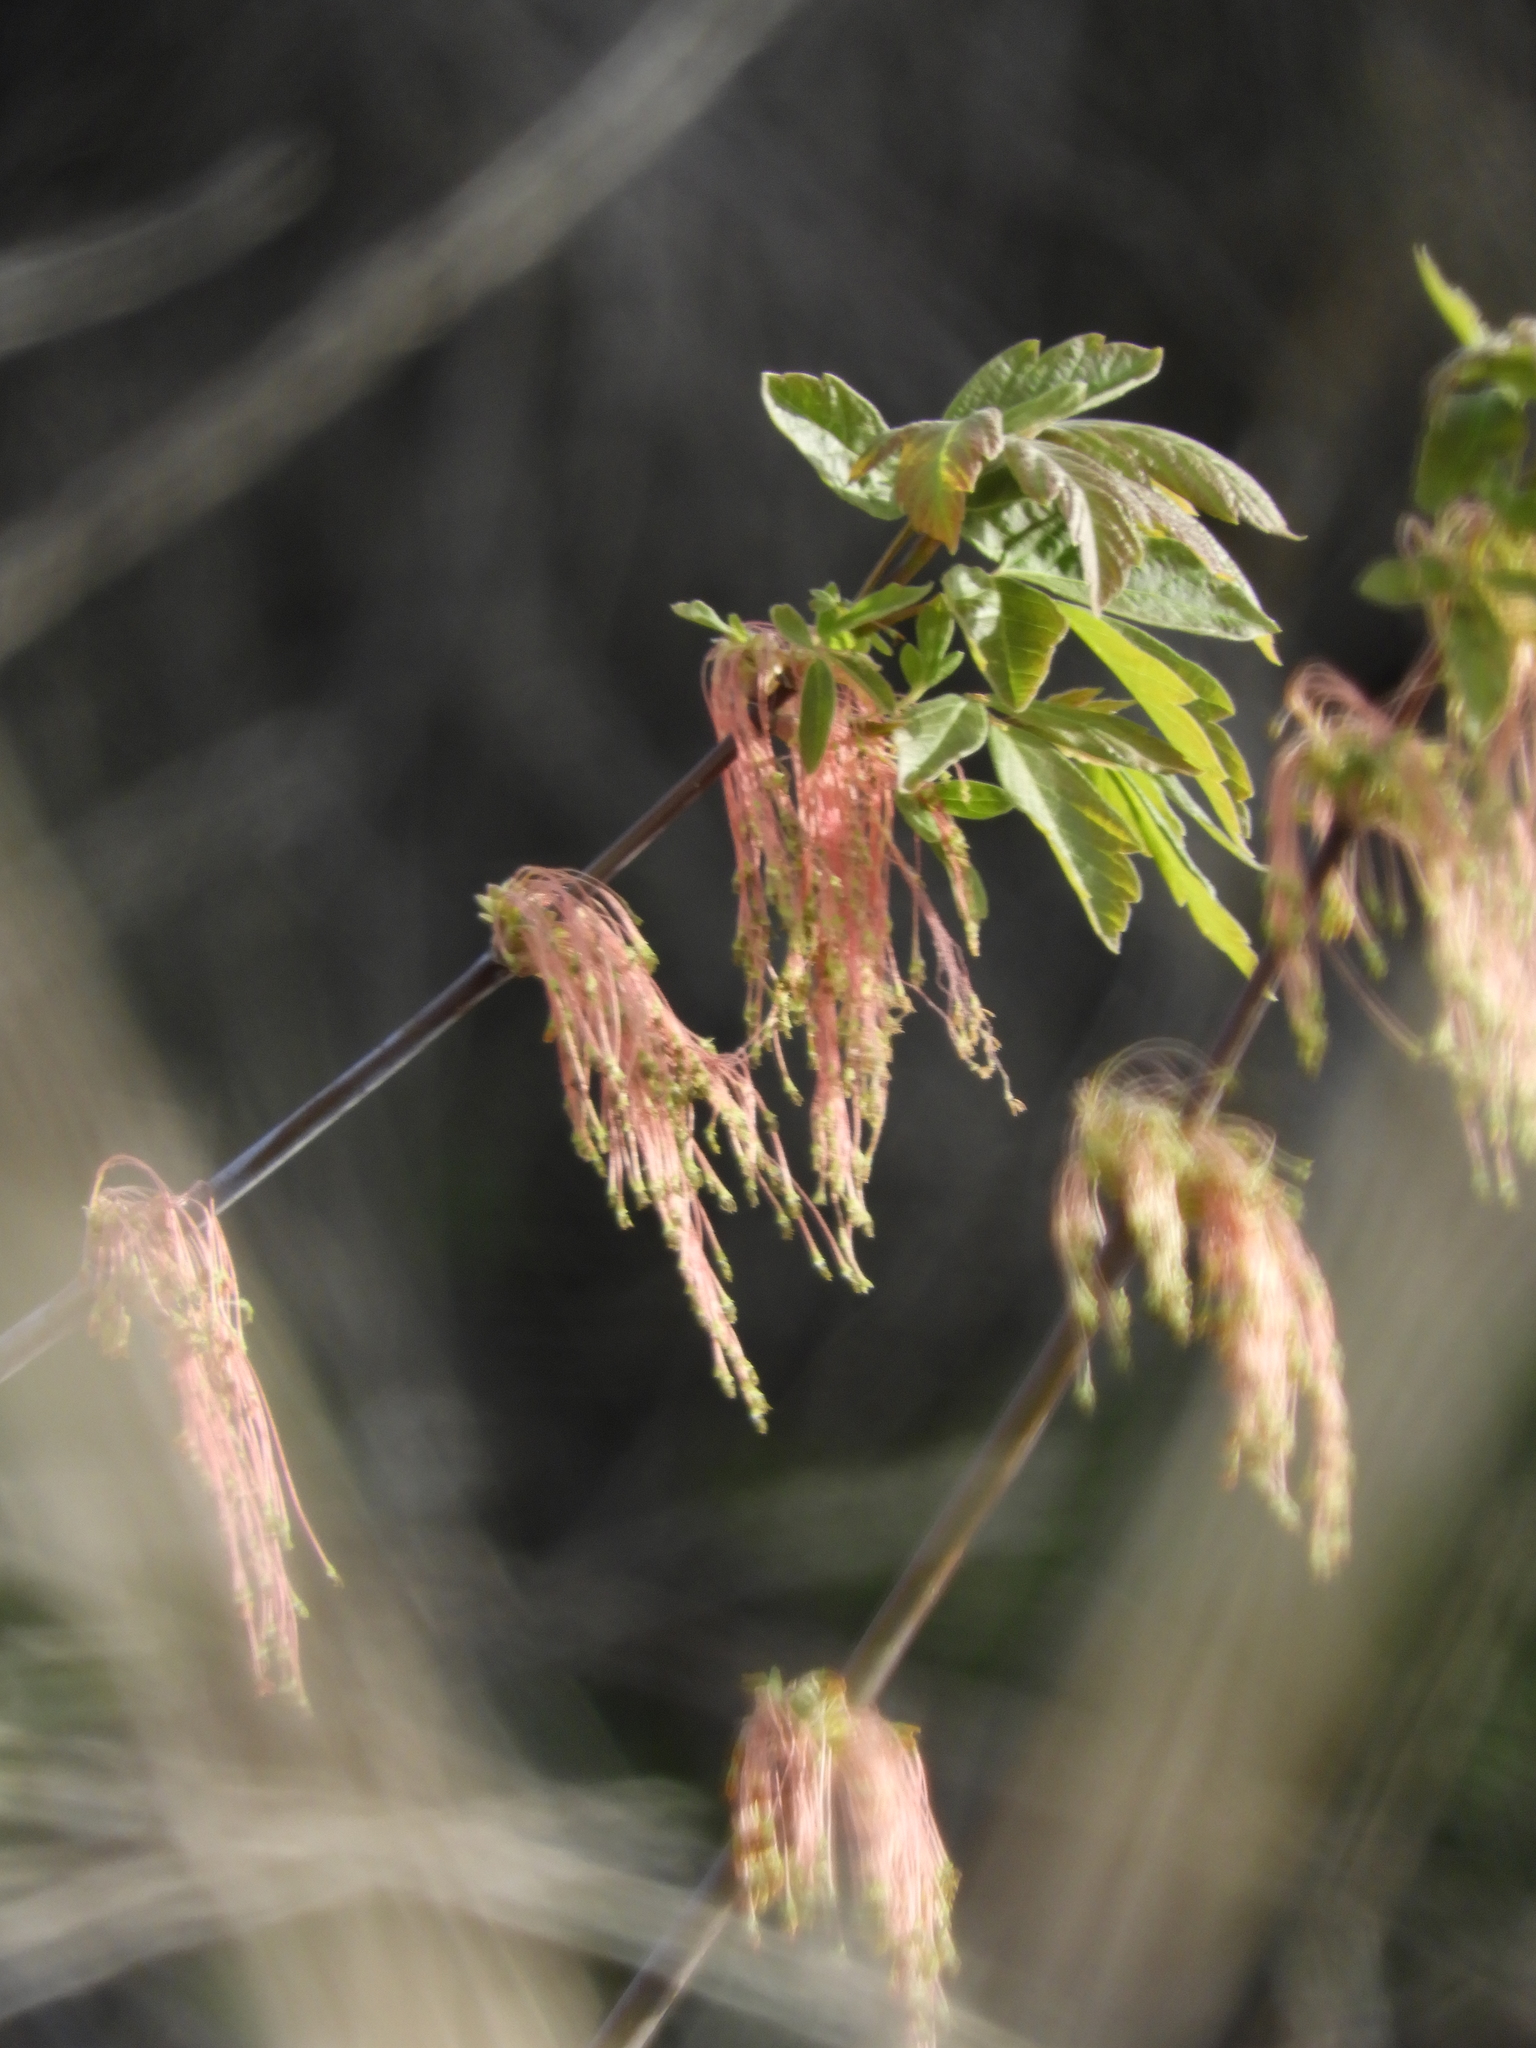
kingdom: Plantae
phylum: Tracheophyta
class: Magnoliopsida
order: Sapindales
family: Sapindaceae
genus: Acer
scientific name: Acer negundo
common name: Ashleaf maple
